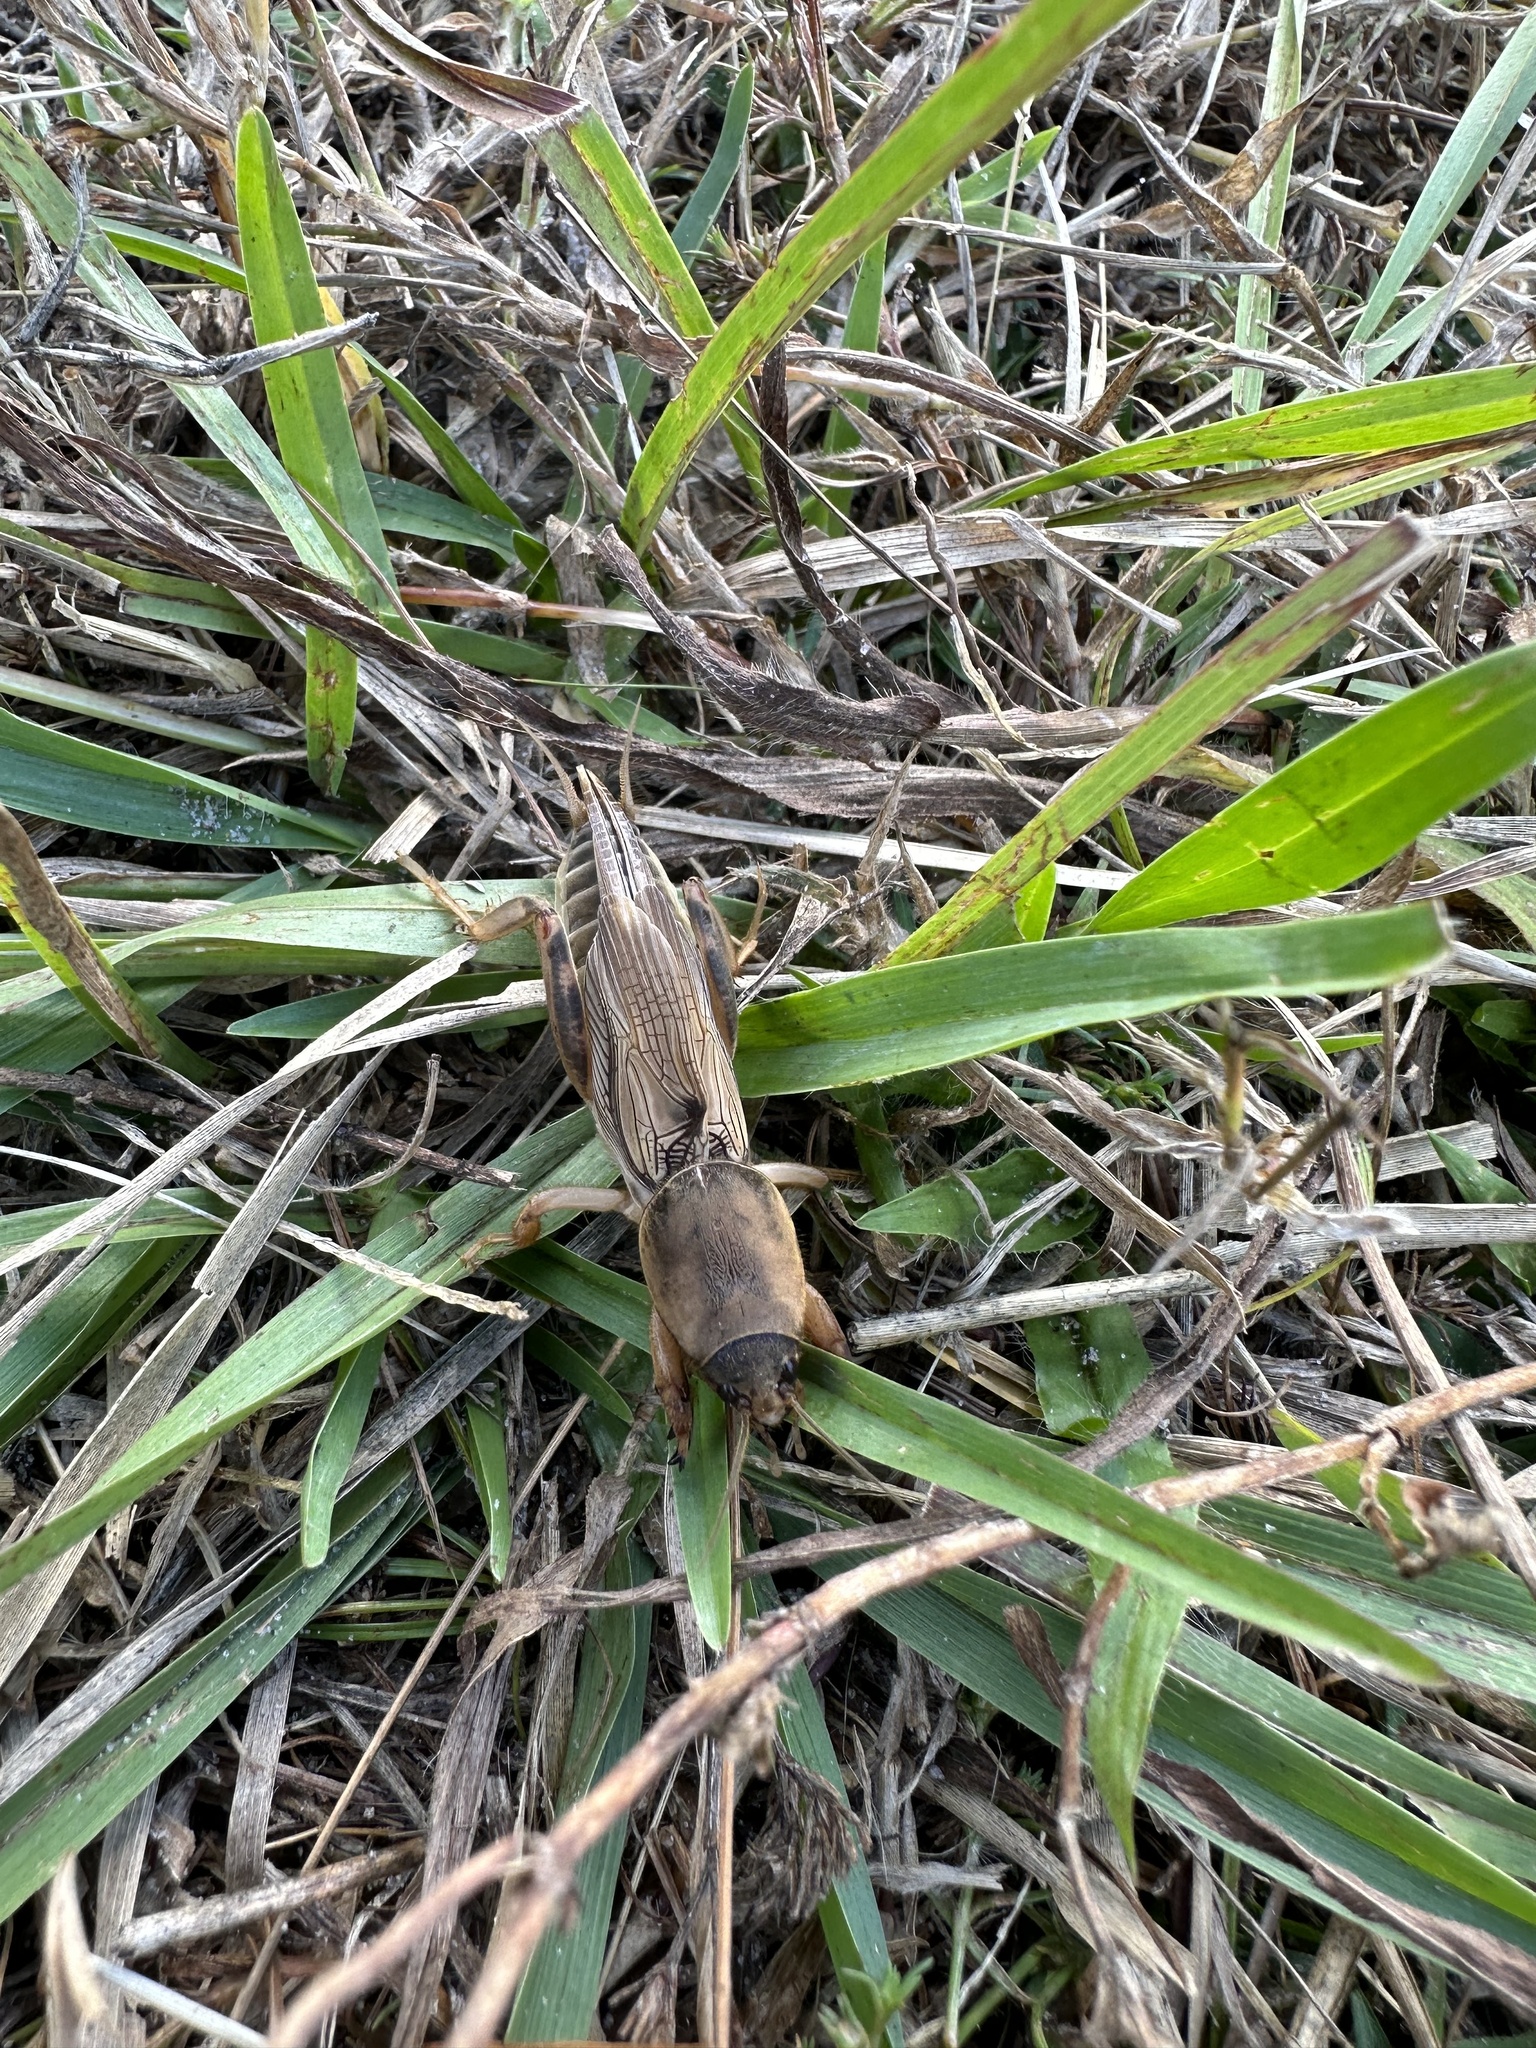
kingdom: Animalia
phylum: Arthropoda
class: Insecta
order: Orthoptera
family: Gryllotalpidae
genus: Neoscapteriscus
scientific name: Neoscapteriscus vicinus
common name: Tawny mole cricket
